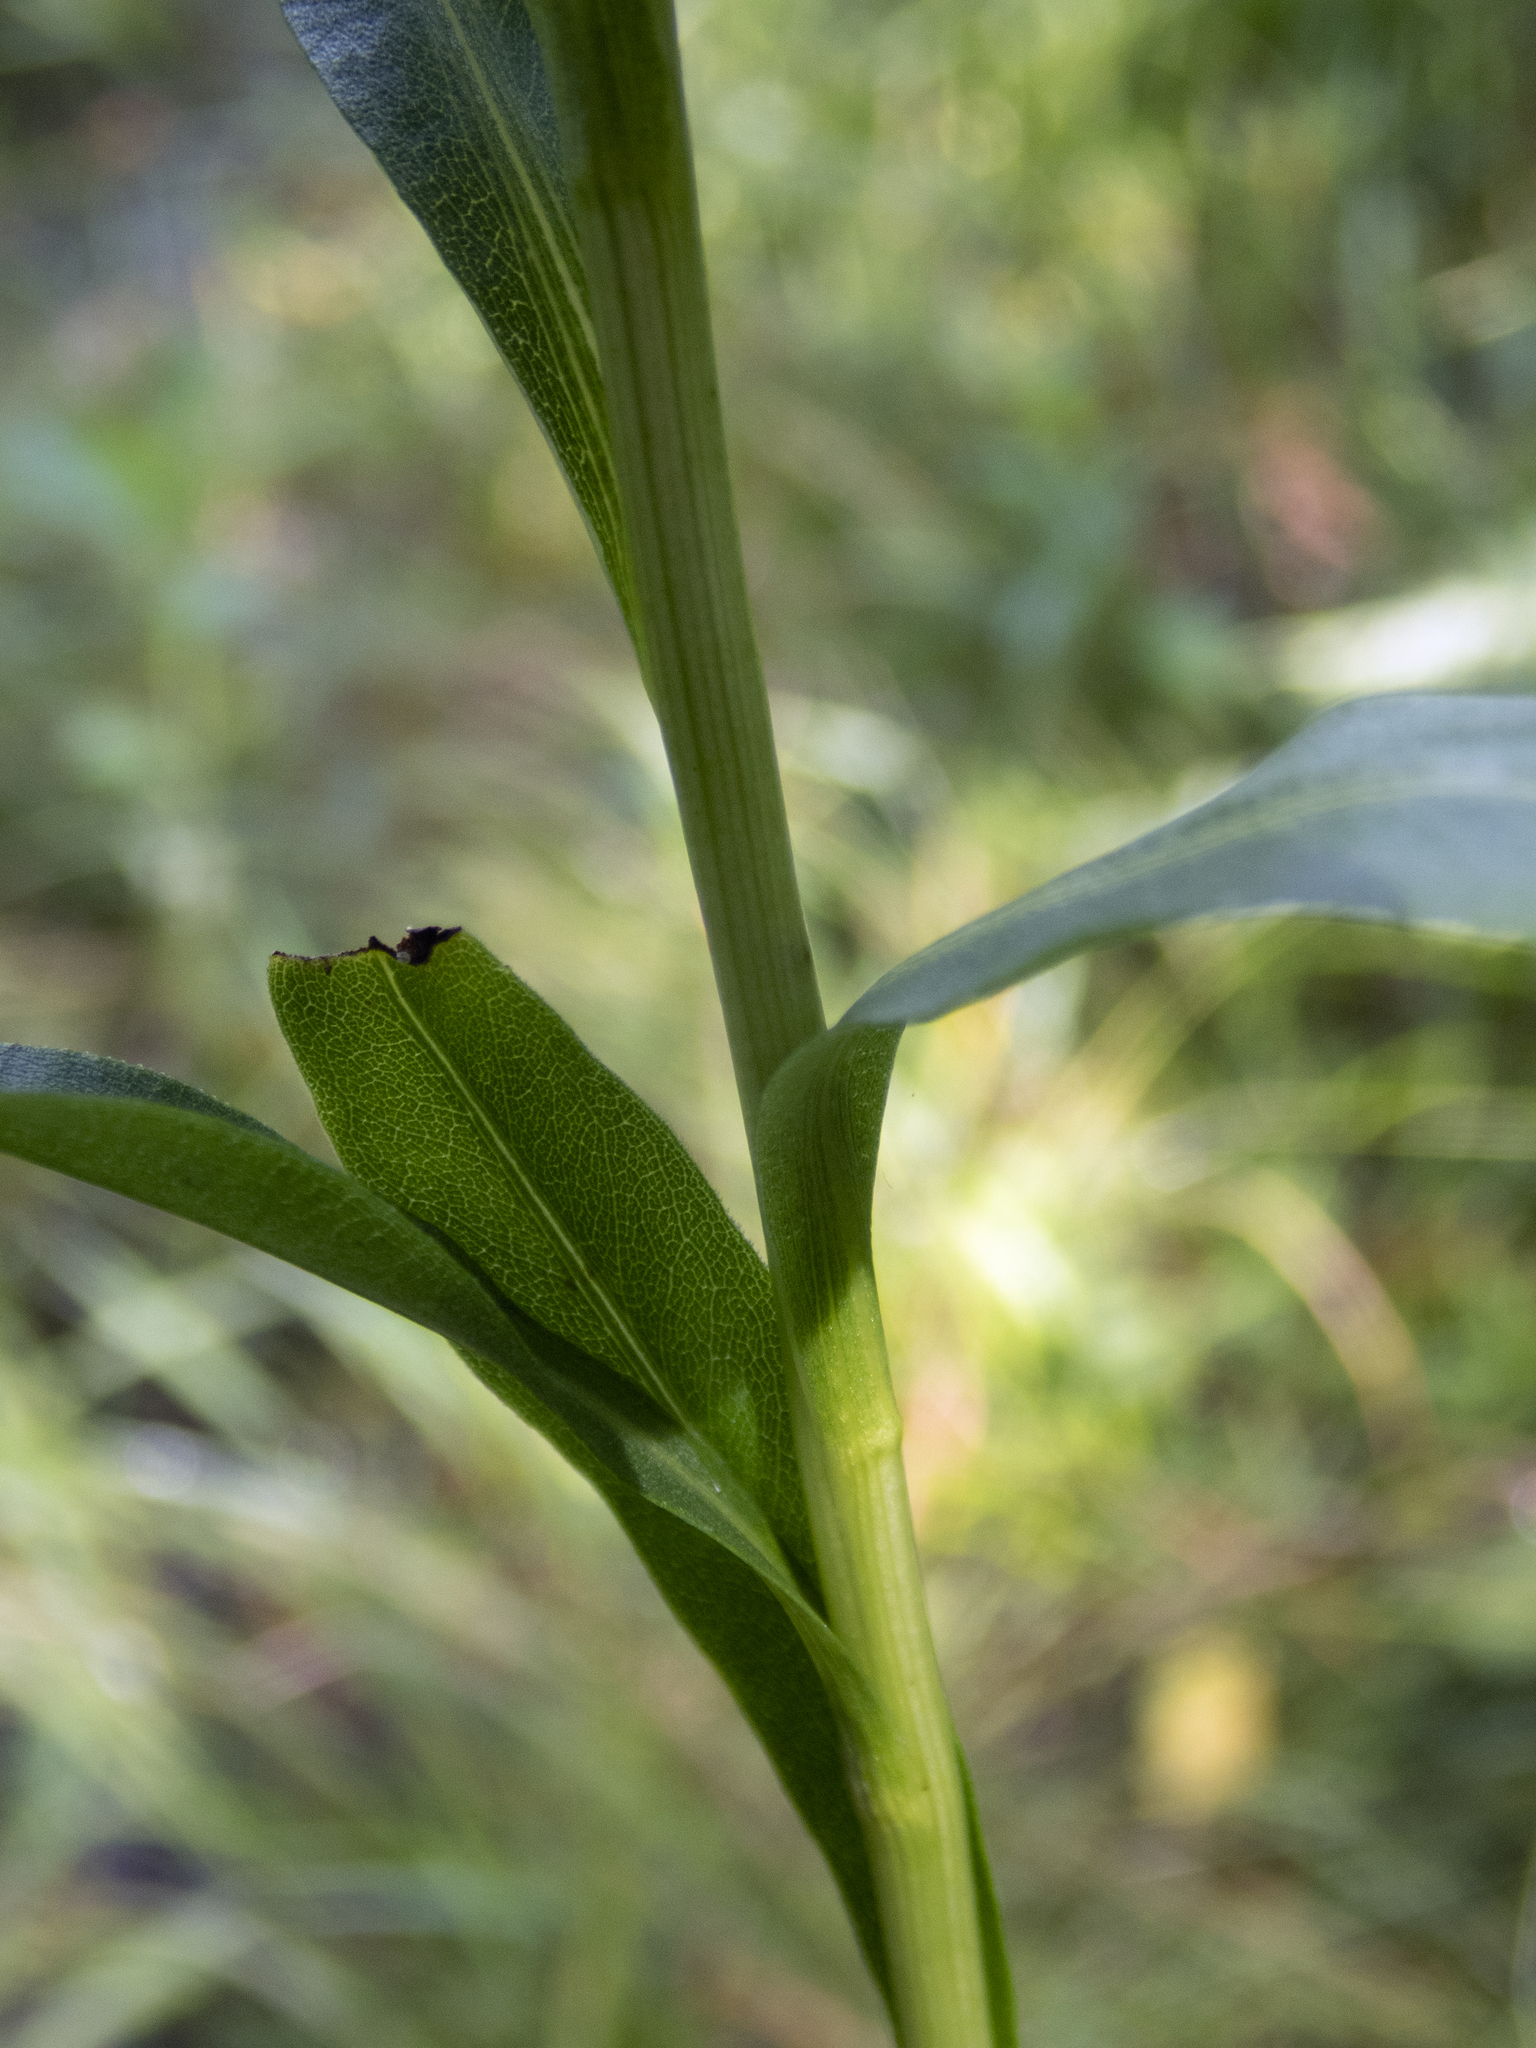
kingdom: Plantae
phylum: Tracheophyta
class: Magnoliopsida
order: Asterales
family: Asteraceae
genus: Solidago
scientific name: Solidago ohioensis
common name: Ohio goldenrod
